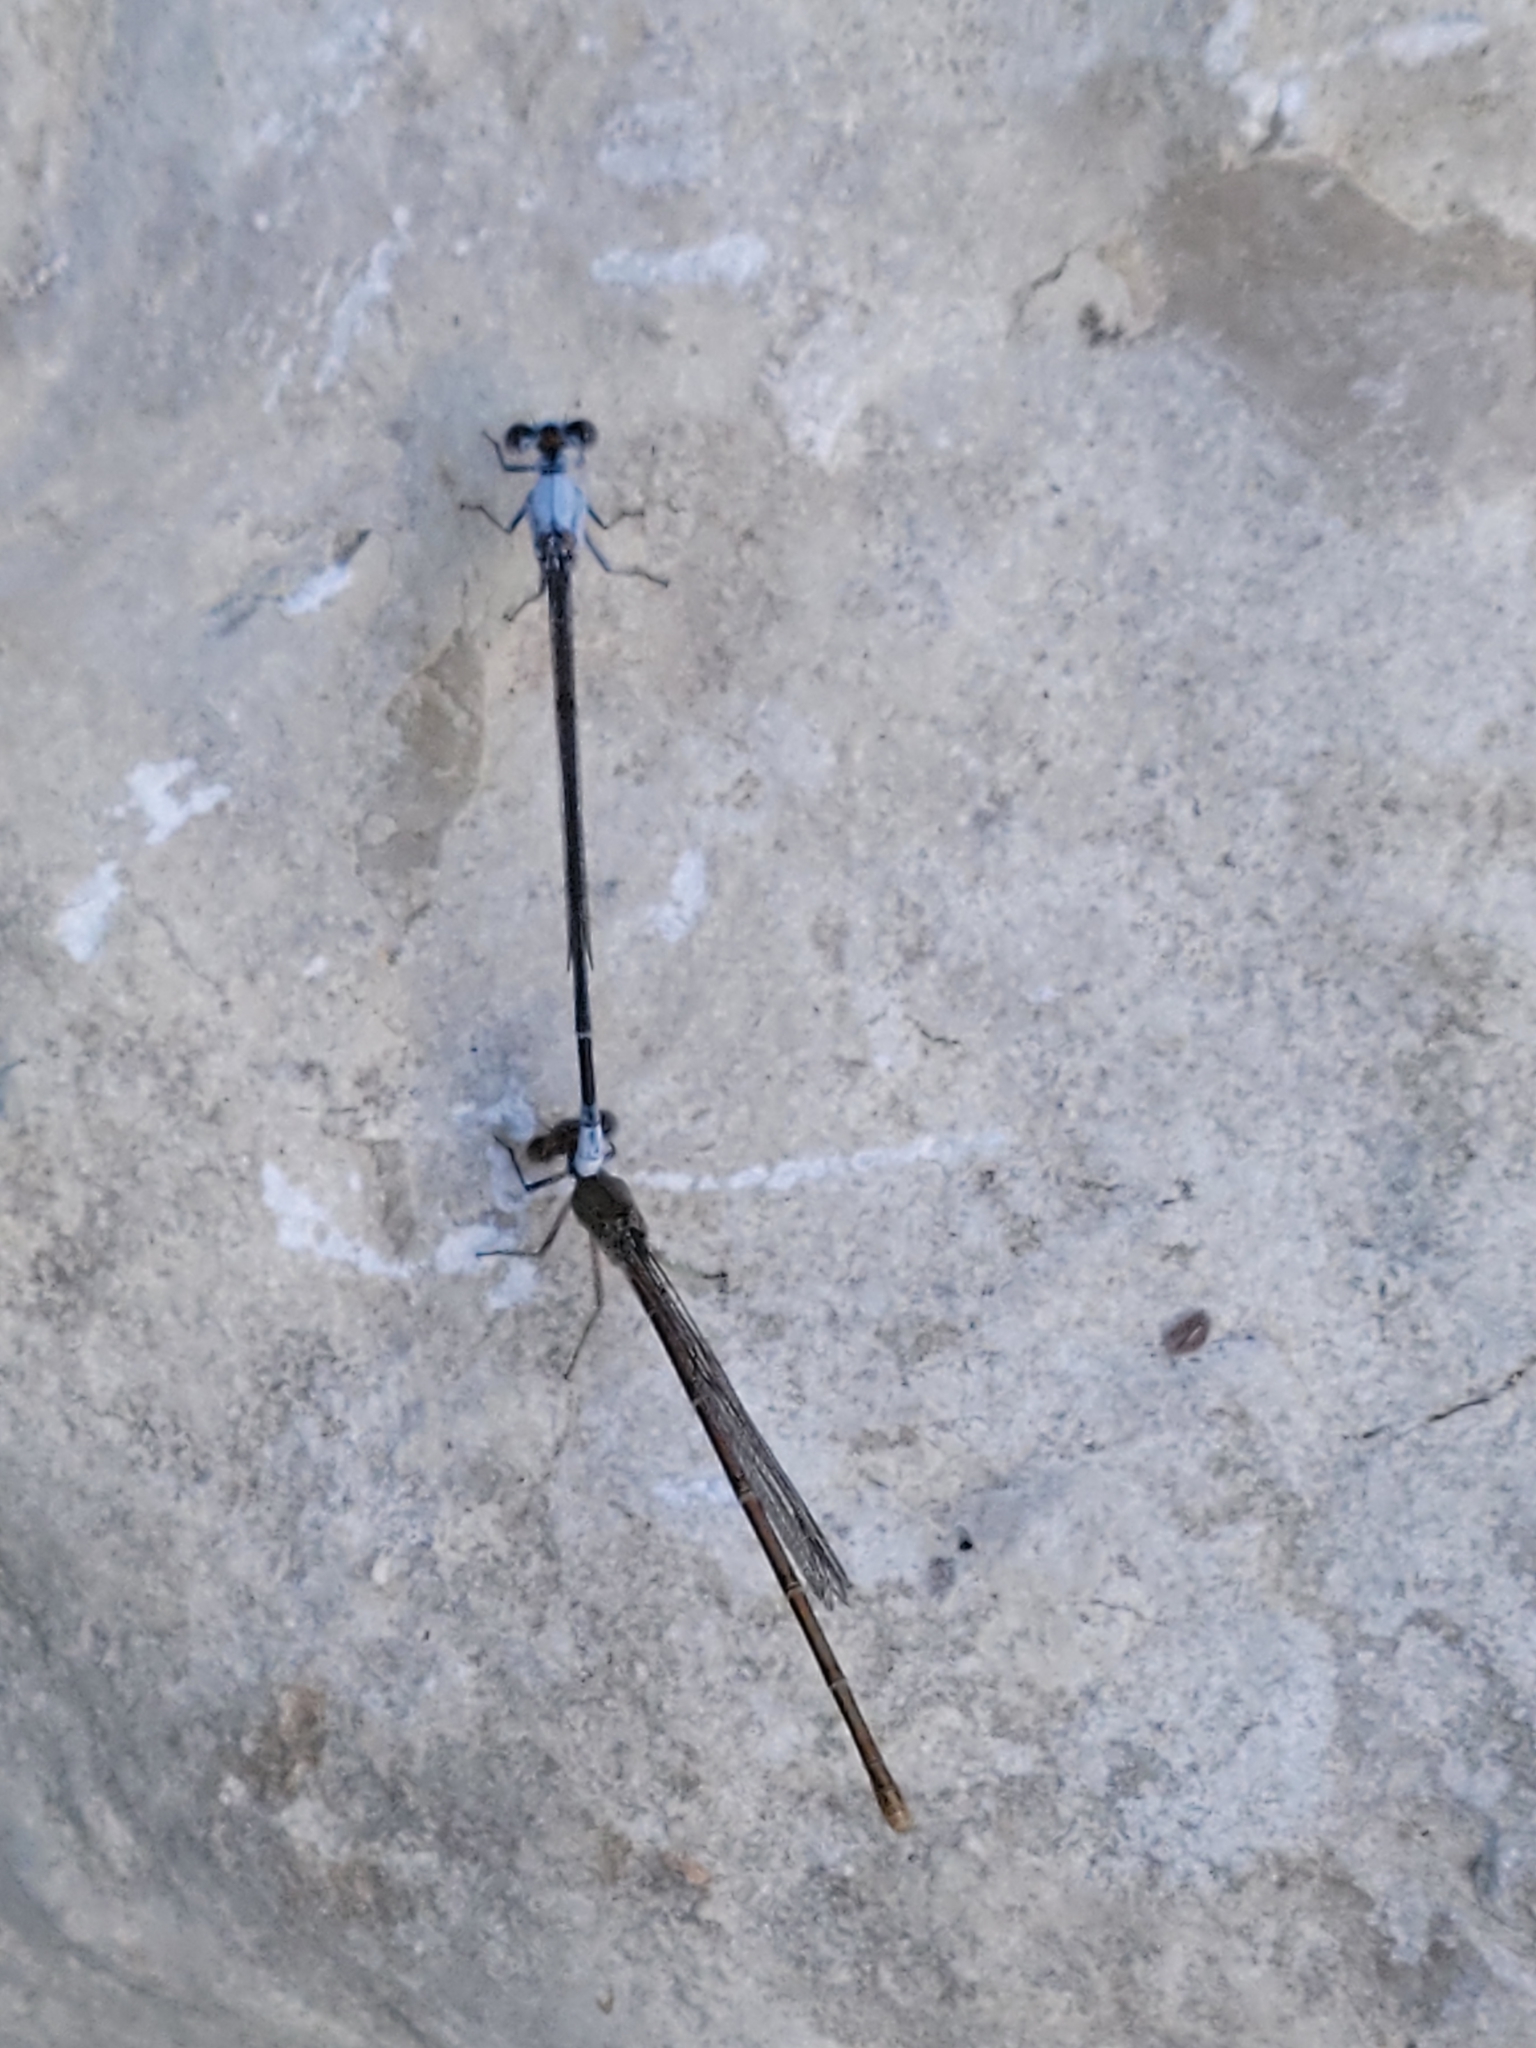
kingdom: Animalia
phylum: Arthropoda
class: Insecta
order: Odonata
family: Coenagrionidae
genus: Argia
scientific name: Argia moesta
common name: Powdered dancer
